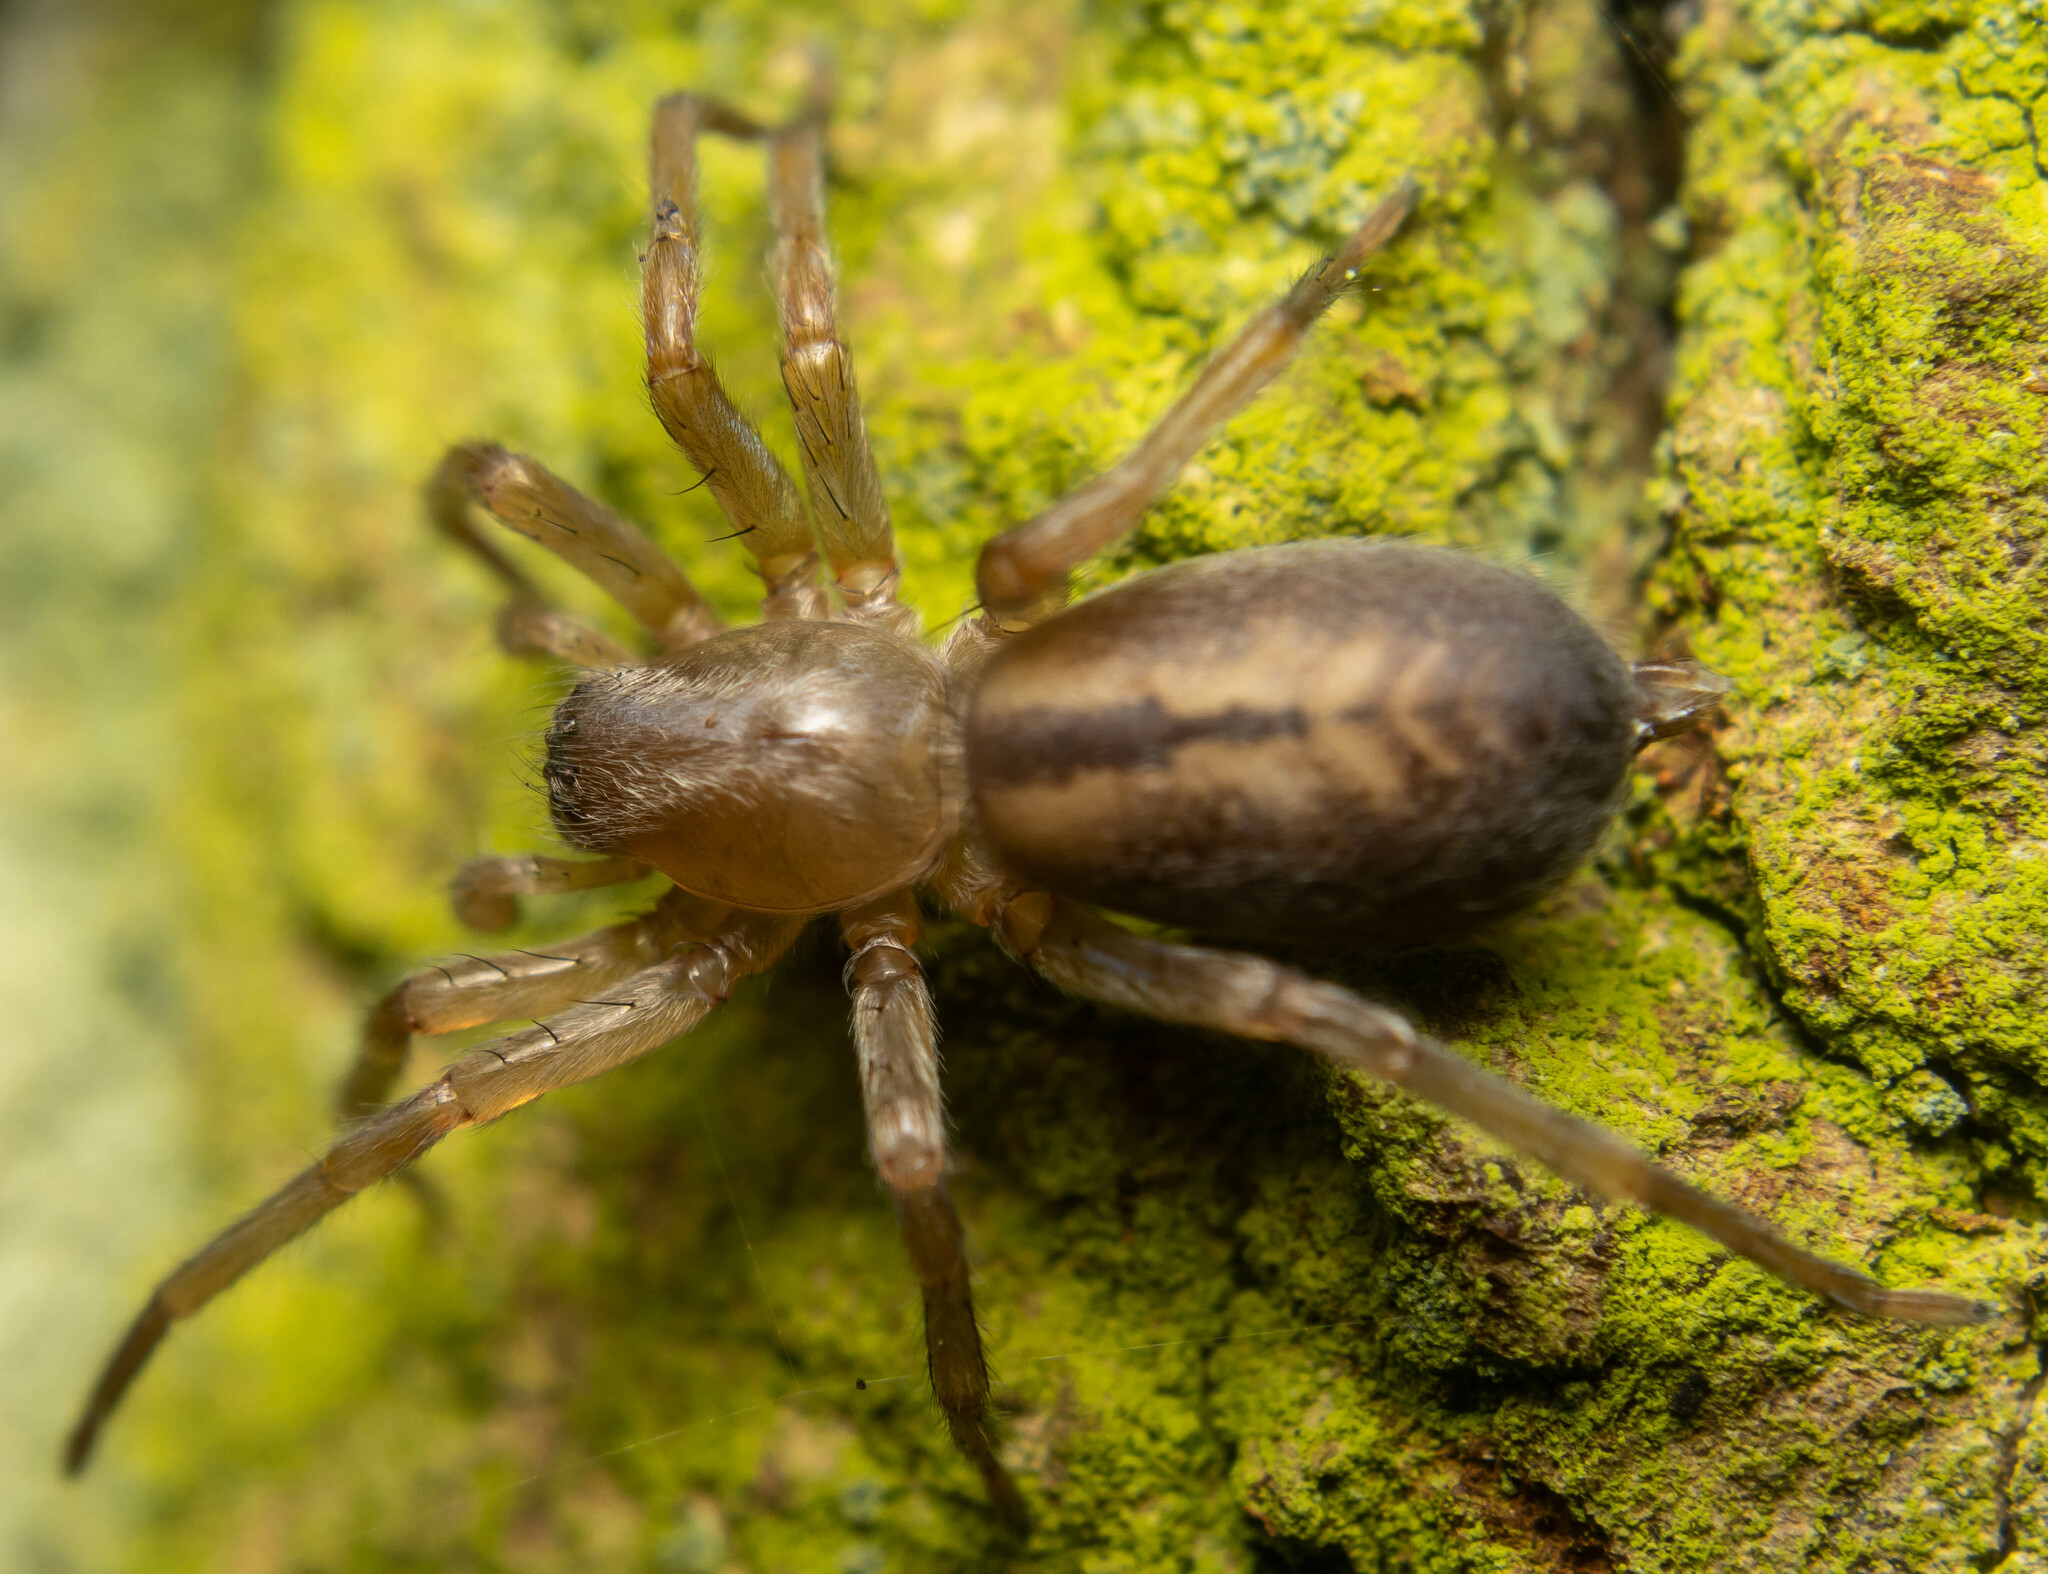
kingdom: Animalia
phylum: Arthropoda
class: Arachnida
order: Araneae
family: Clubionidae
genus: Clubiona
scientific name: Clubiona corticalis
